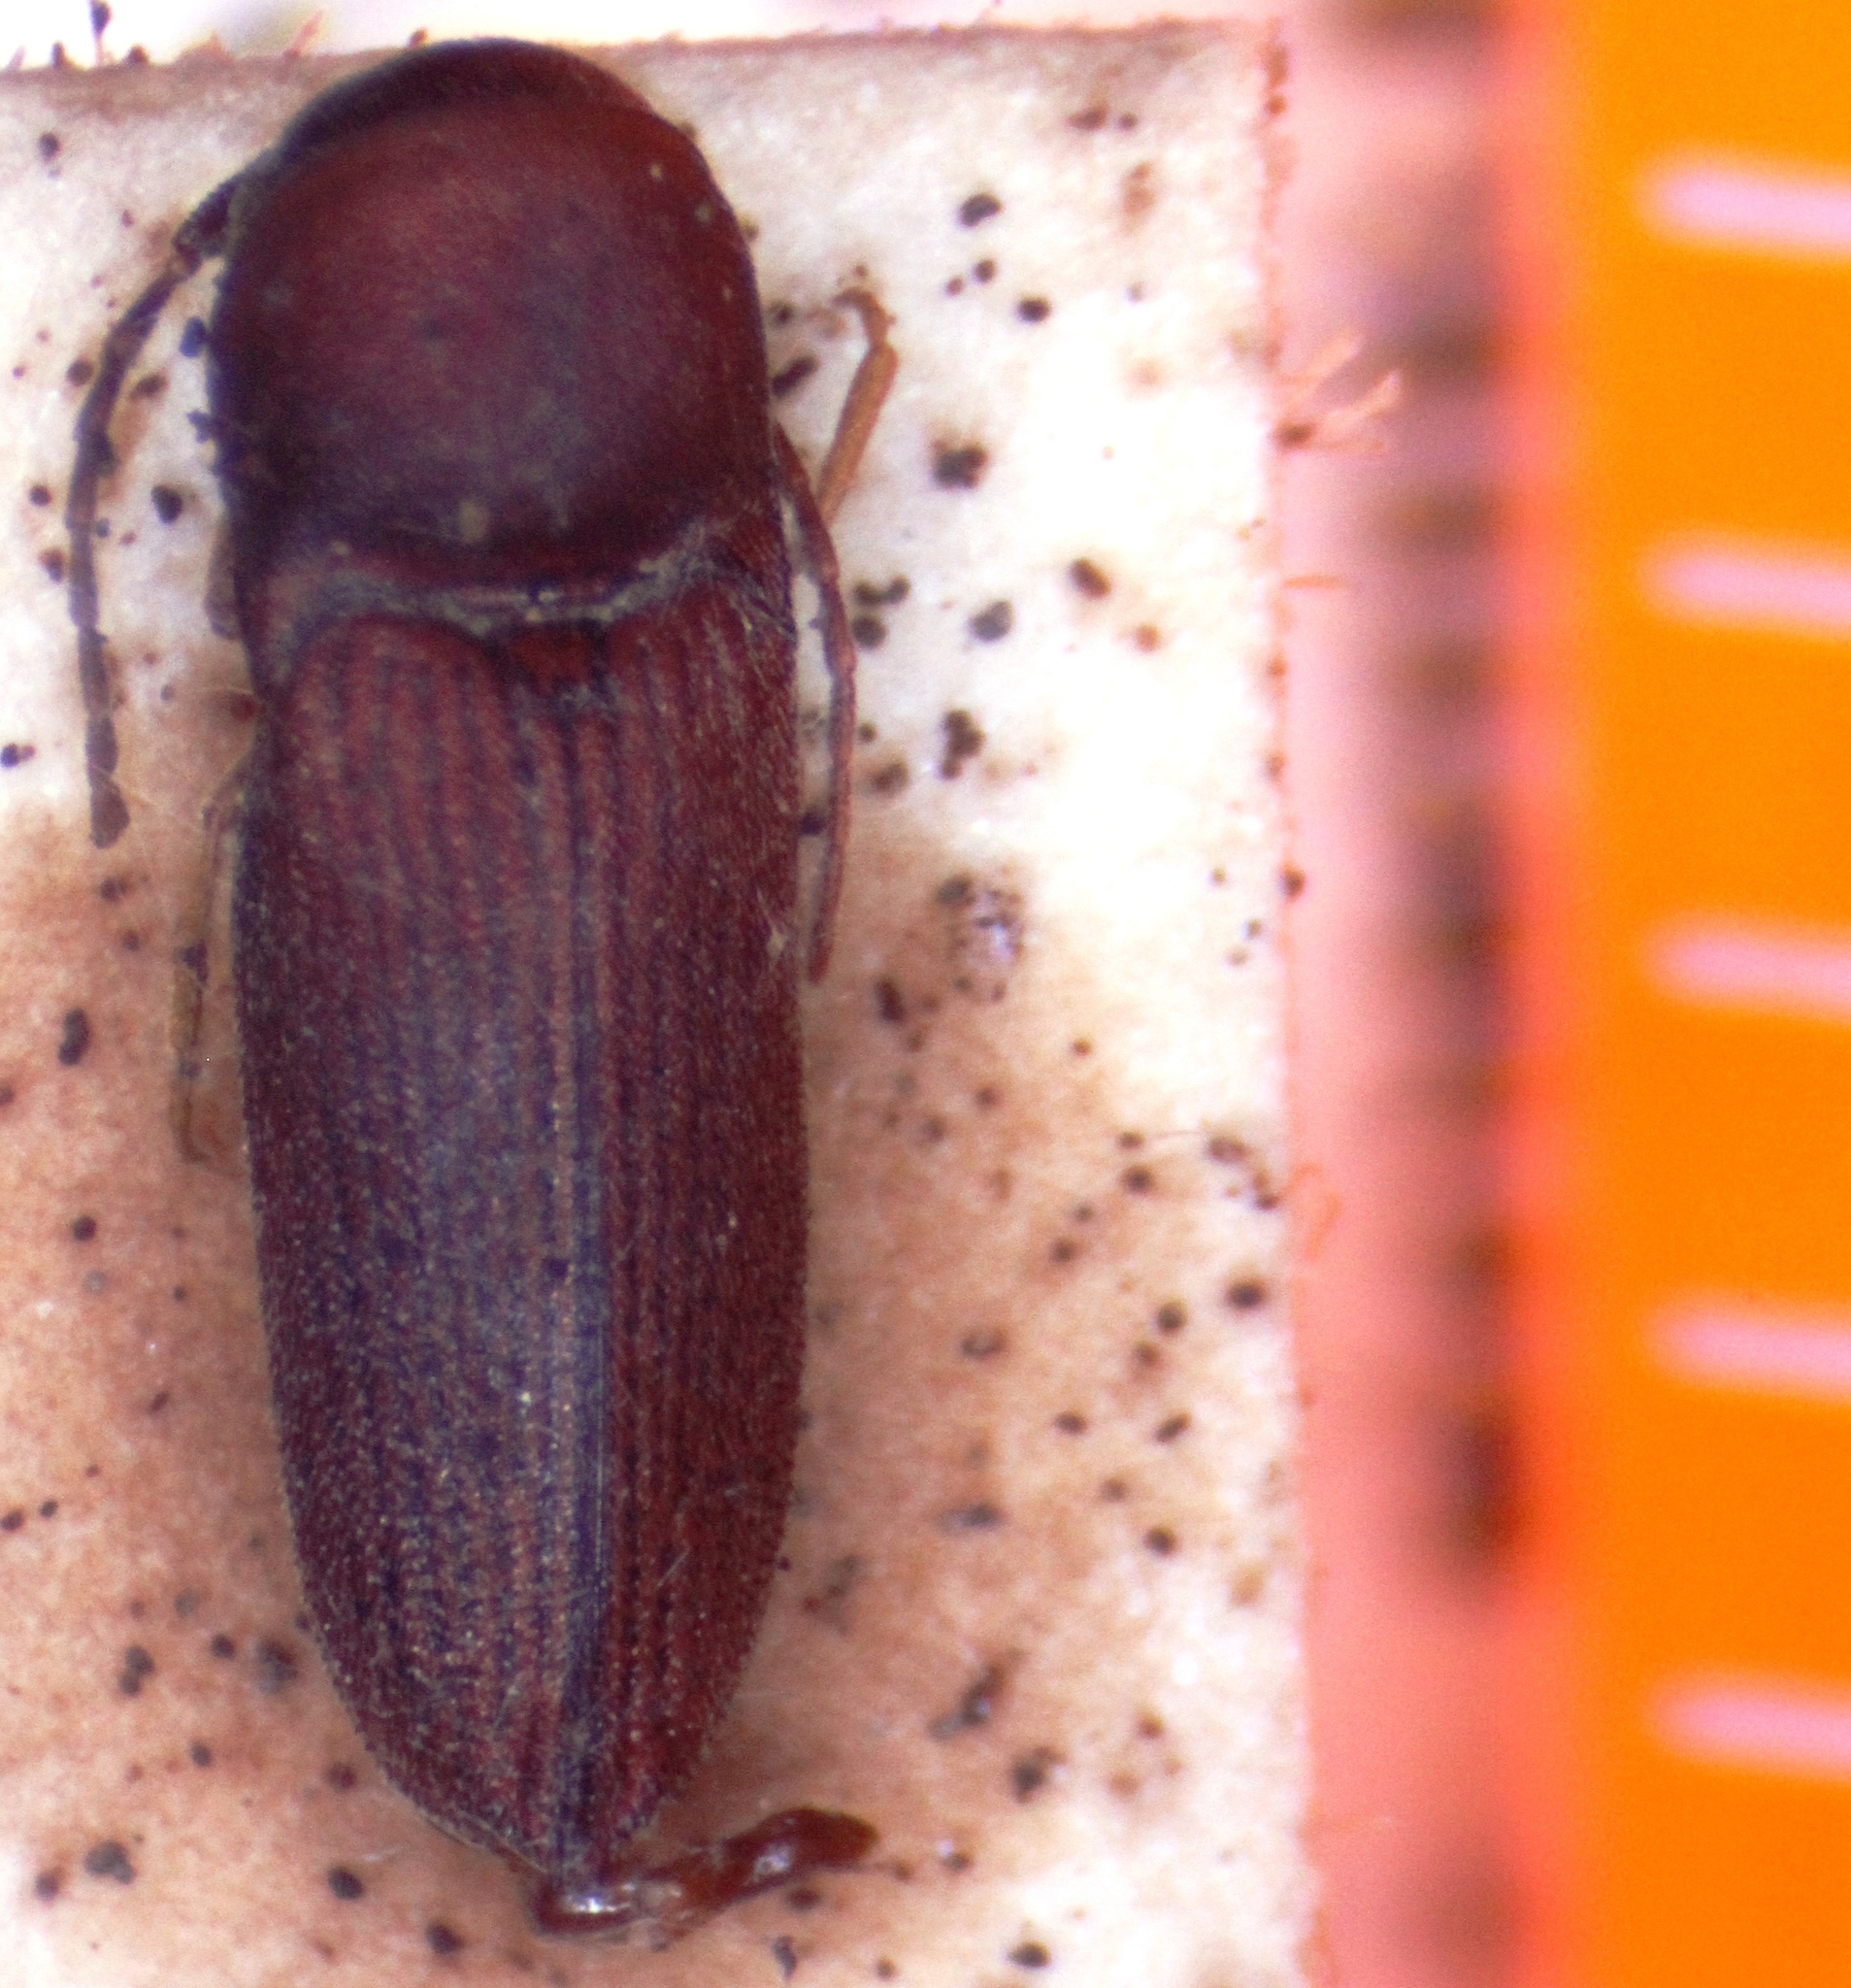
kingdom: Animalia
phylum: Arthropoda
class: Insecta
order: Coleoptera
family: Eucnemidae
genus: Farsus
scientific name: Farsus
